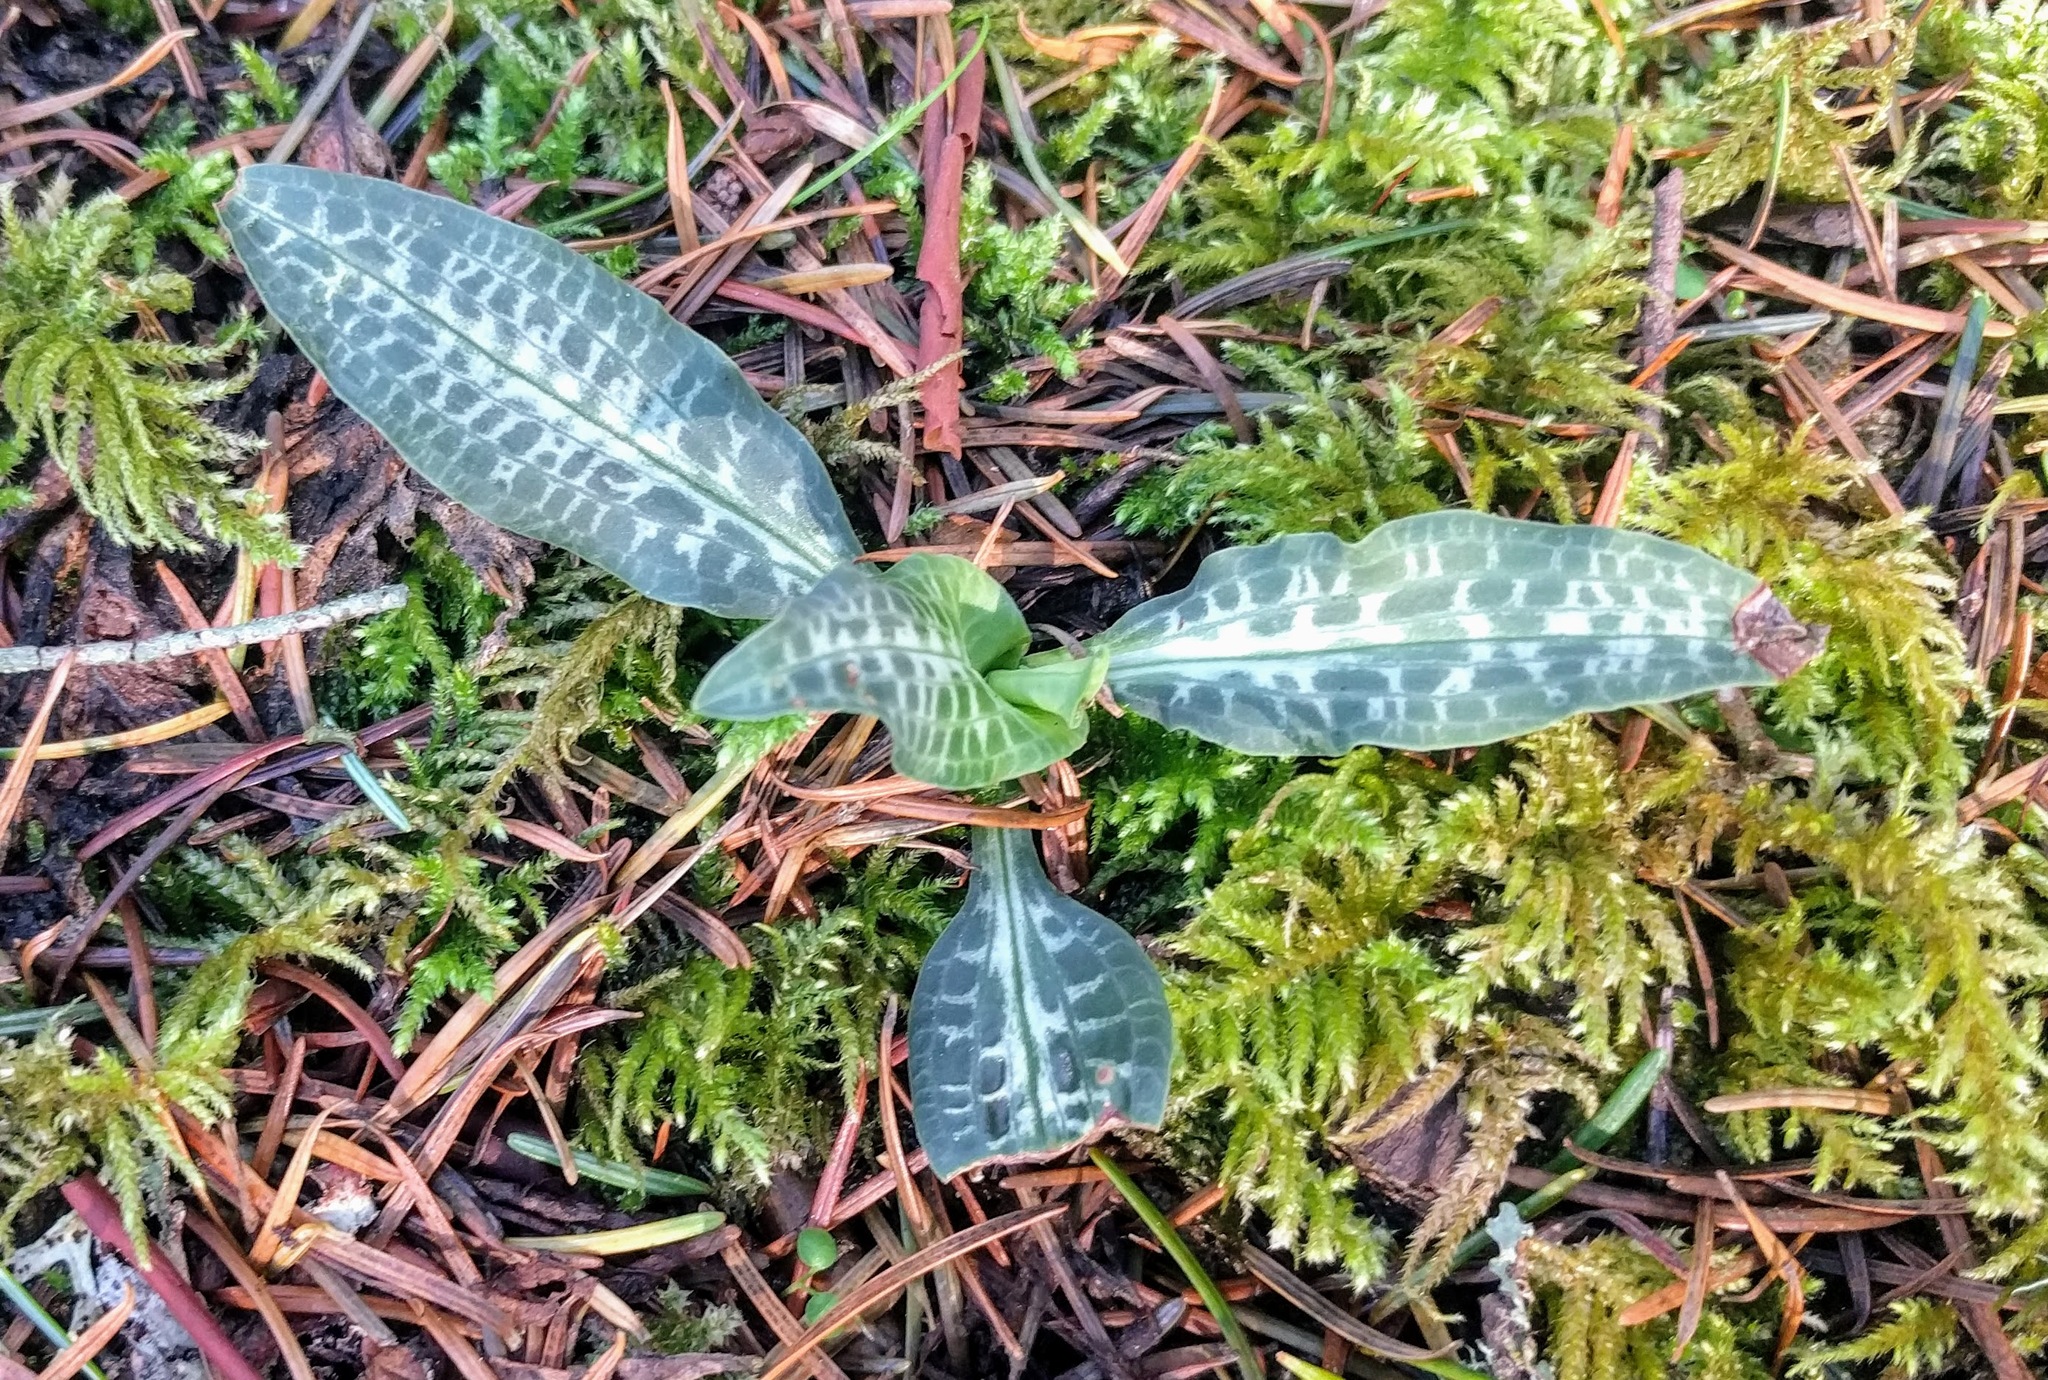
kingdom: Plantae
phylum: Tracheophyta
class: Liliopsida
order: Asparagales
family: Orchidaceae
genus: Goodyera
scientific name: Goodyera oblongifolia
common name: Giant rattlesnake-plantain
